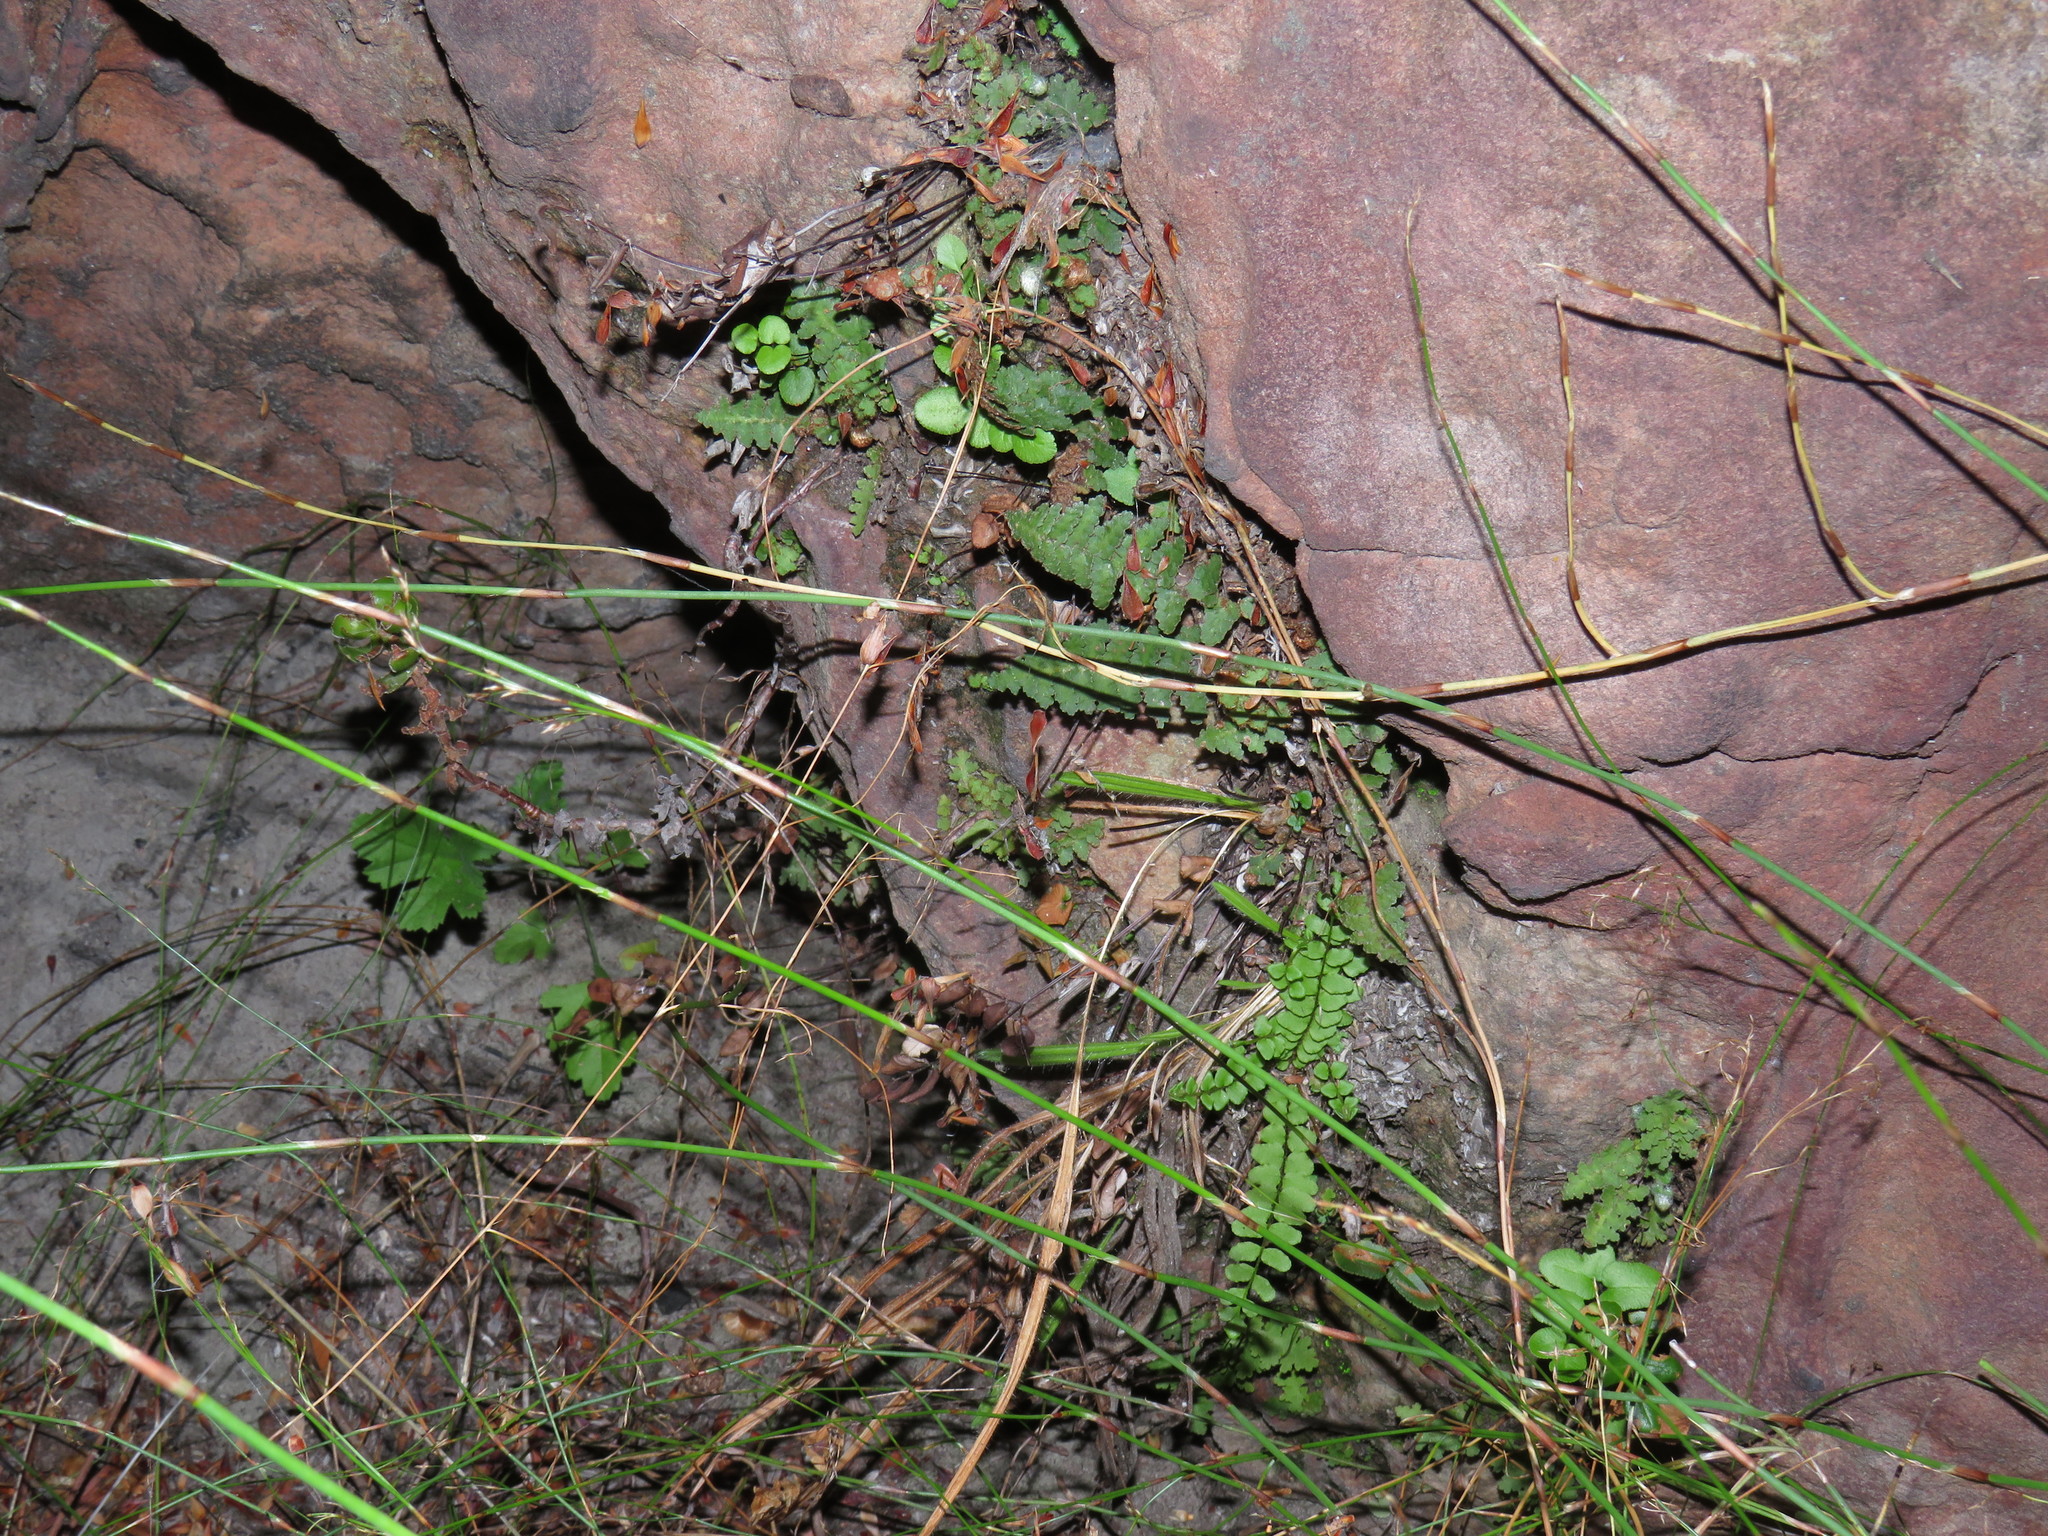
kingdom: Plantae
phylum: Tracheophyta
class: Polypodiopsida
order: Schizaeales
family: Anemiaceae
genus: Anemia
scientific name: Anemia caffrorum
